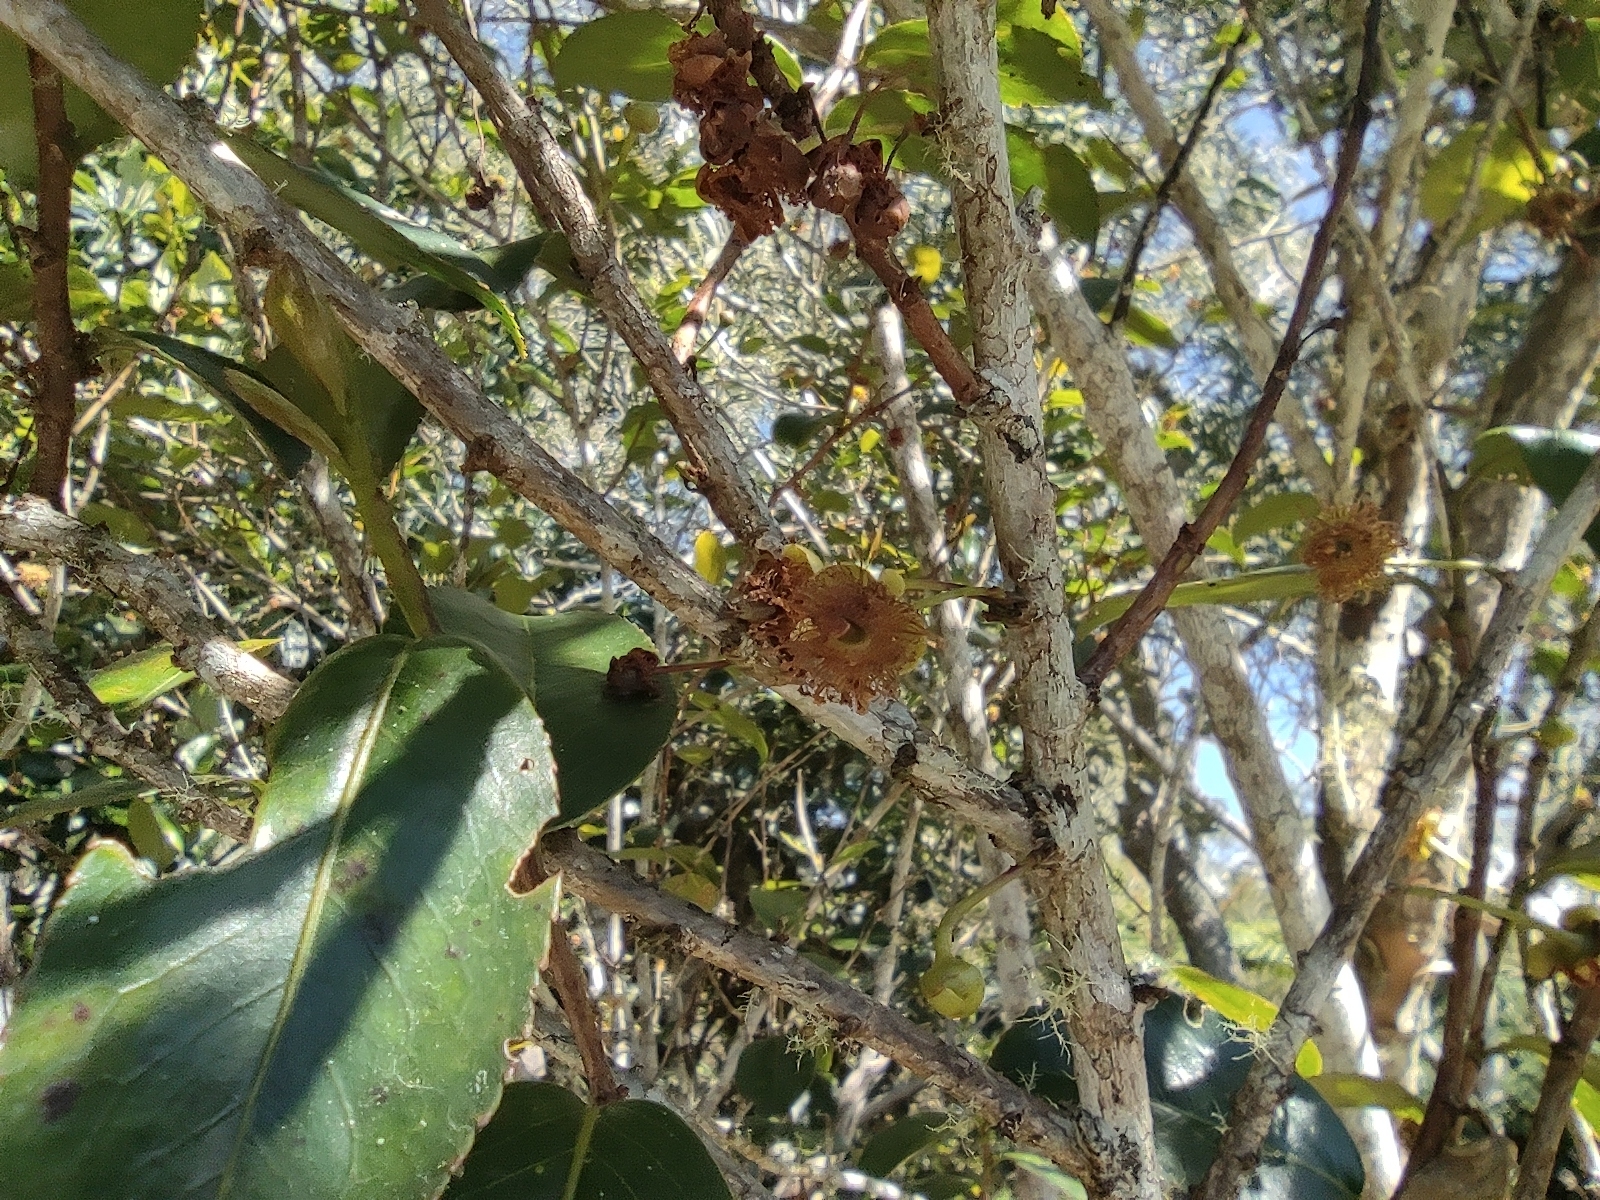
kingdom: Plantae
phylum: Tracheophyta
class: Magnoliopsida
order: Crossosomatales
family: Aphloiaceae
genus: Aphloia
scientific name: Aphloia theiformis
